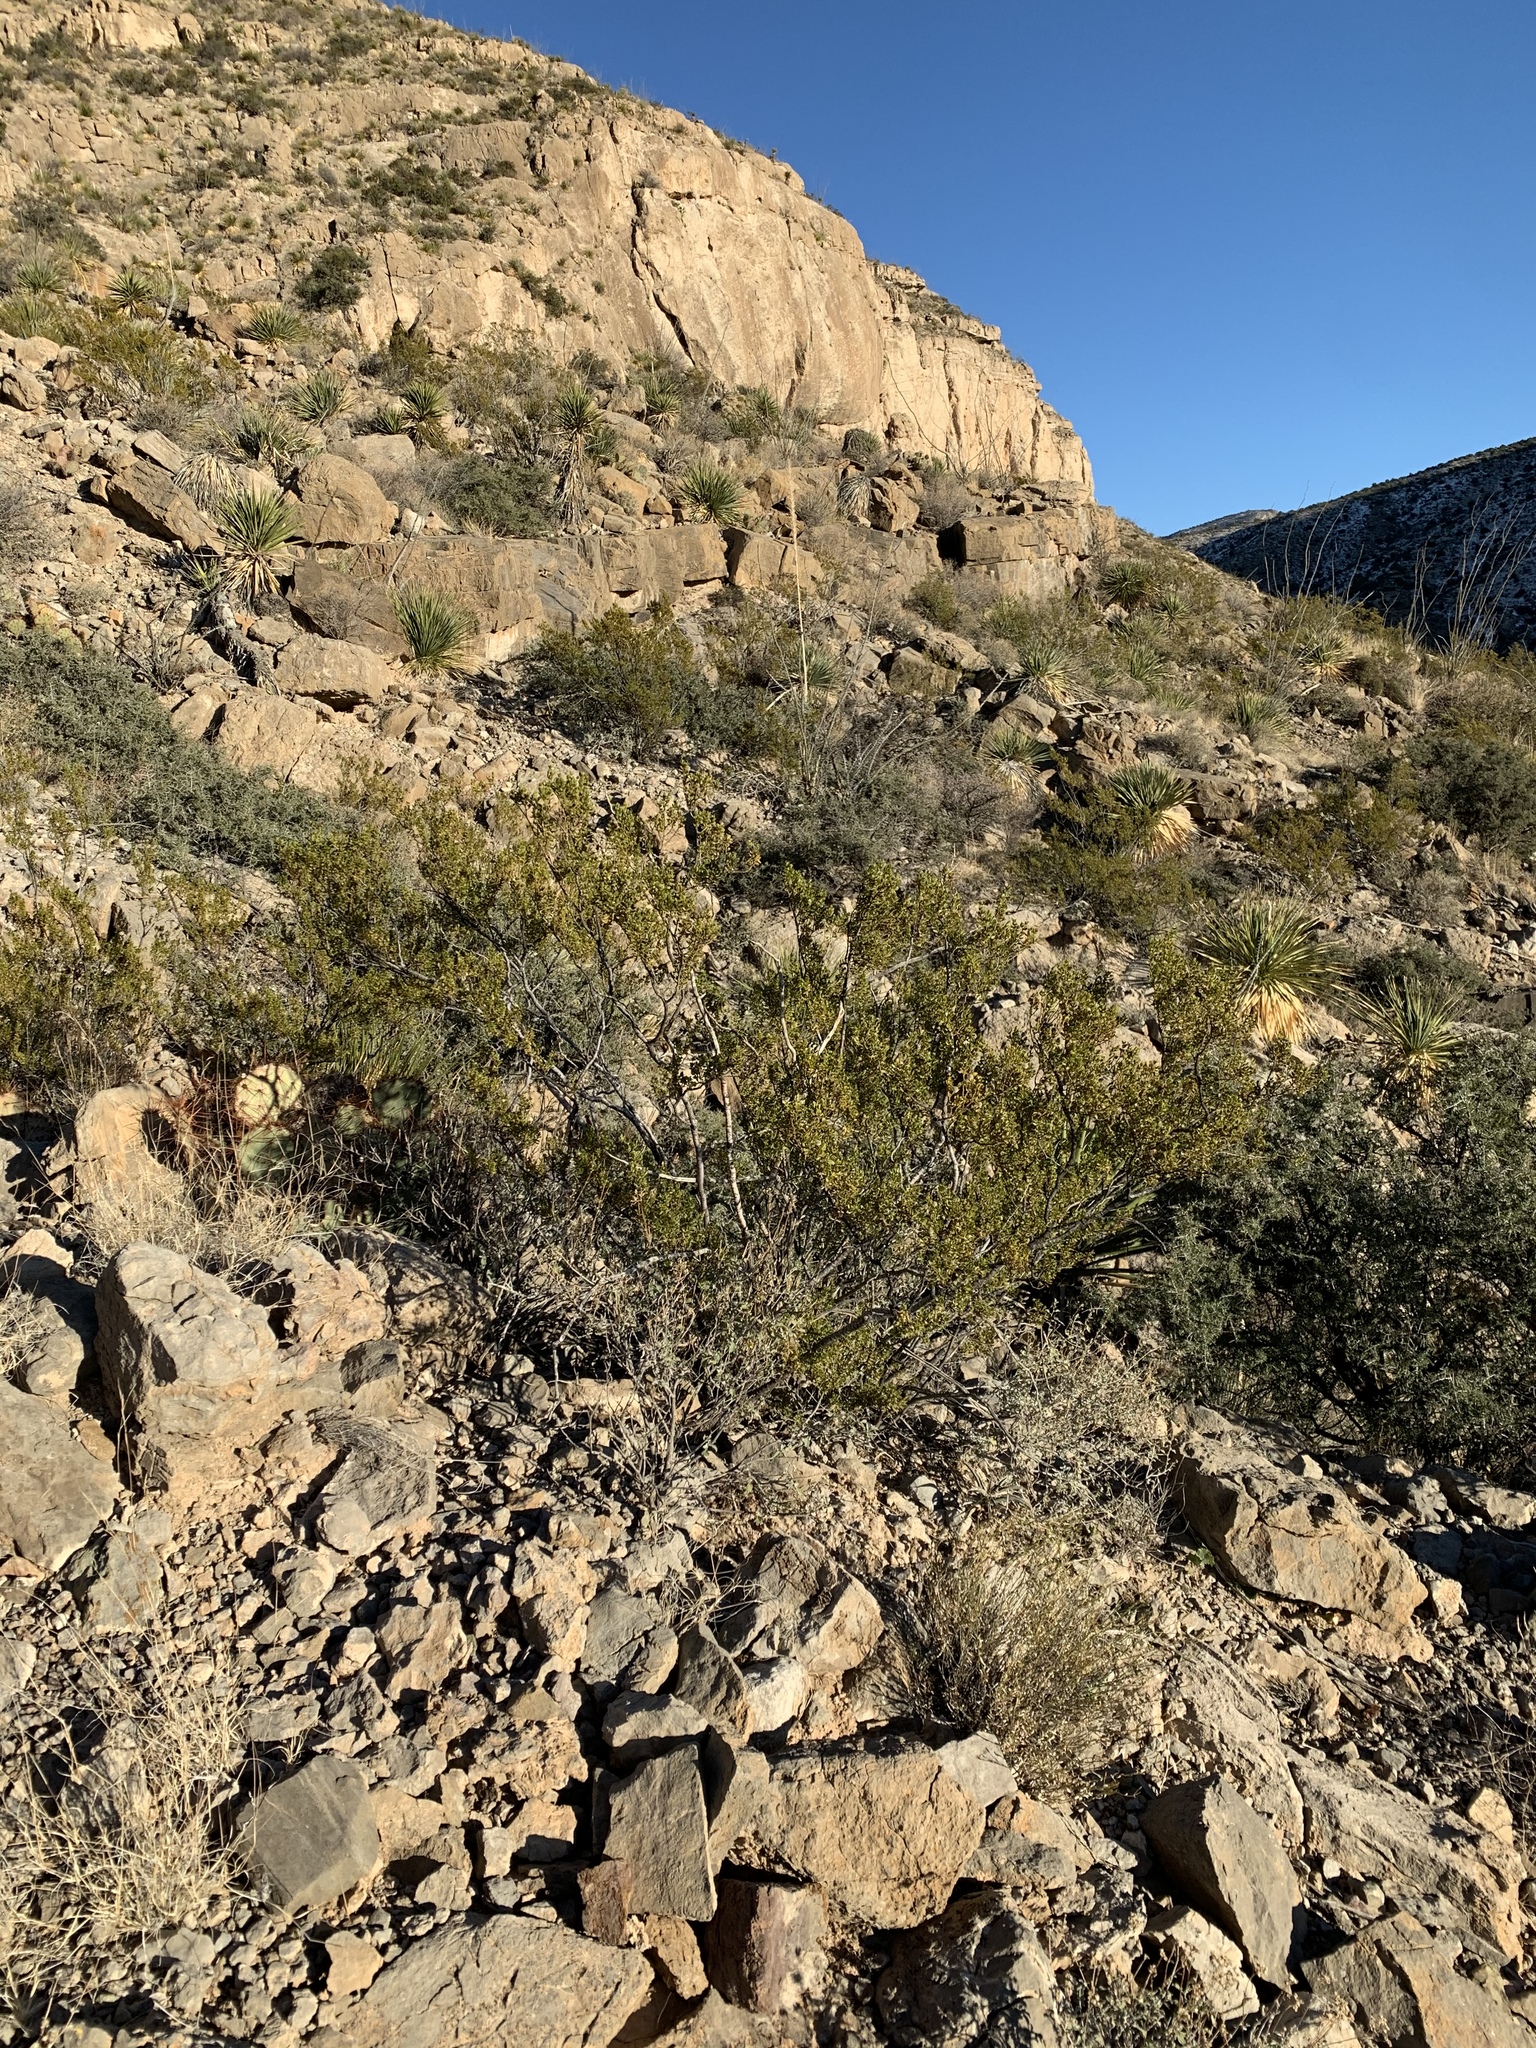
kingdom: Plantae
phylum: Tracheophyta
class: Magnoliopsida
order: Zygophyllales
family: Zygophyllaceae
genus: Larrea
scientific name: Larrea tridentata
